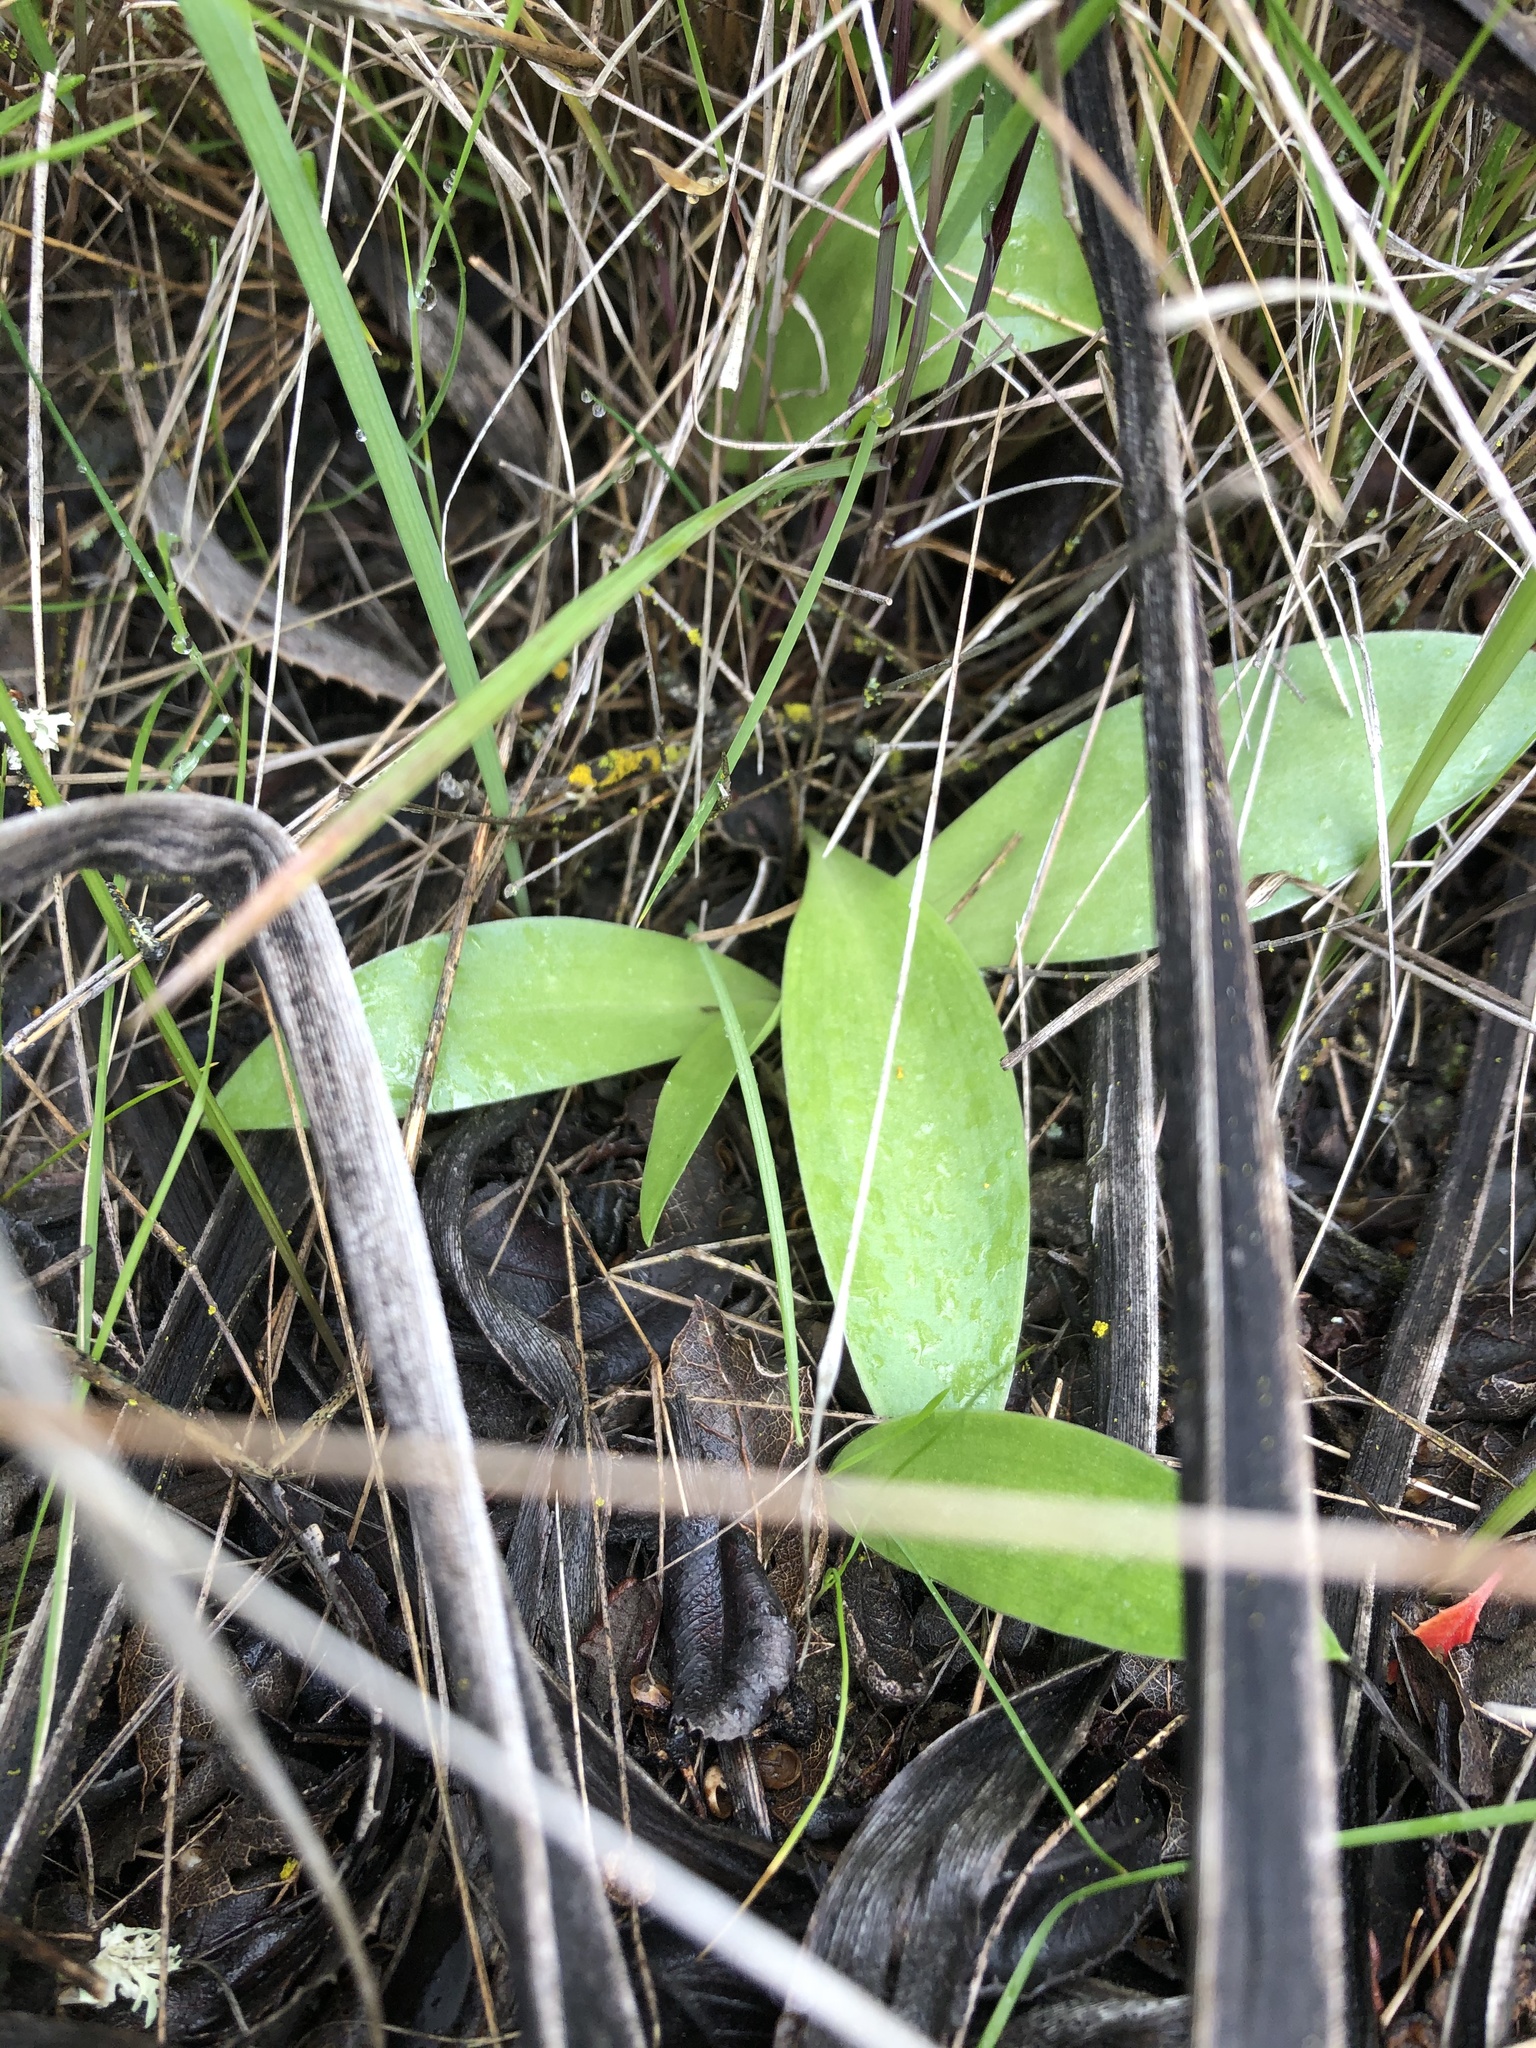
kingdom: Plantae
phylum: Tracheophyta
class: Liliopsida
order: Liliales
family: Liliaceae
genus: Fritillaria
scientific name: Fritillaria biflora
